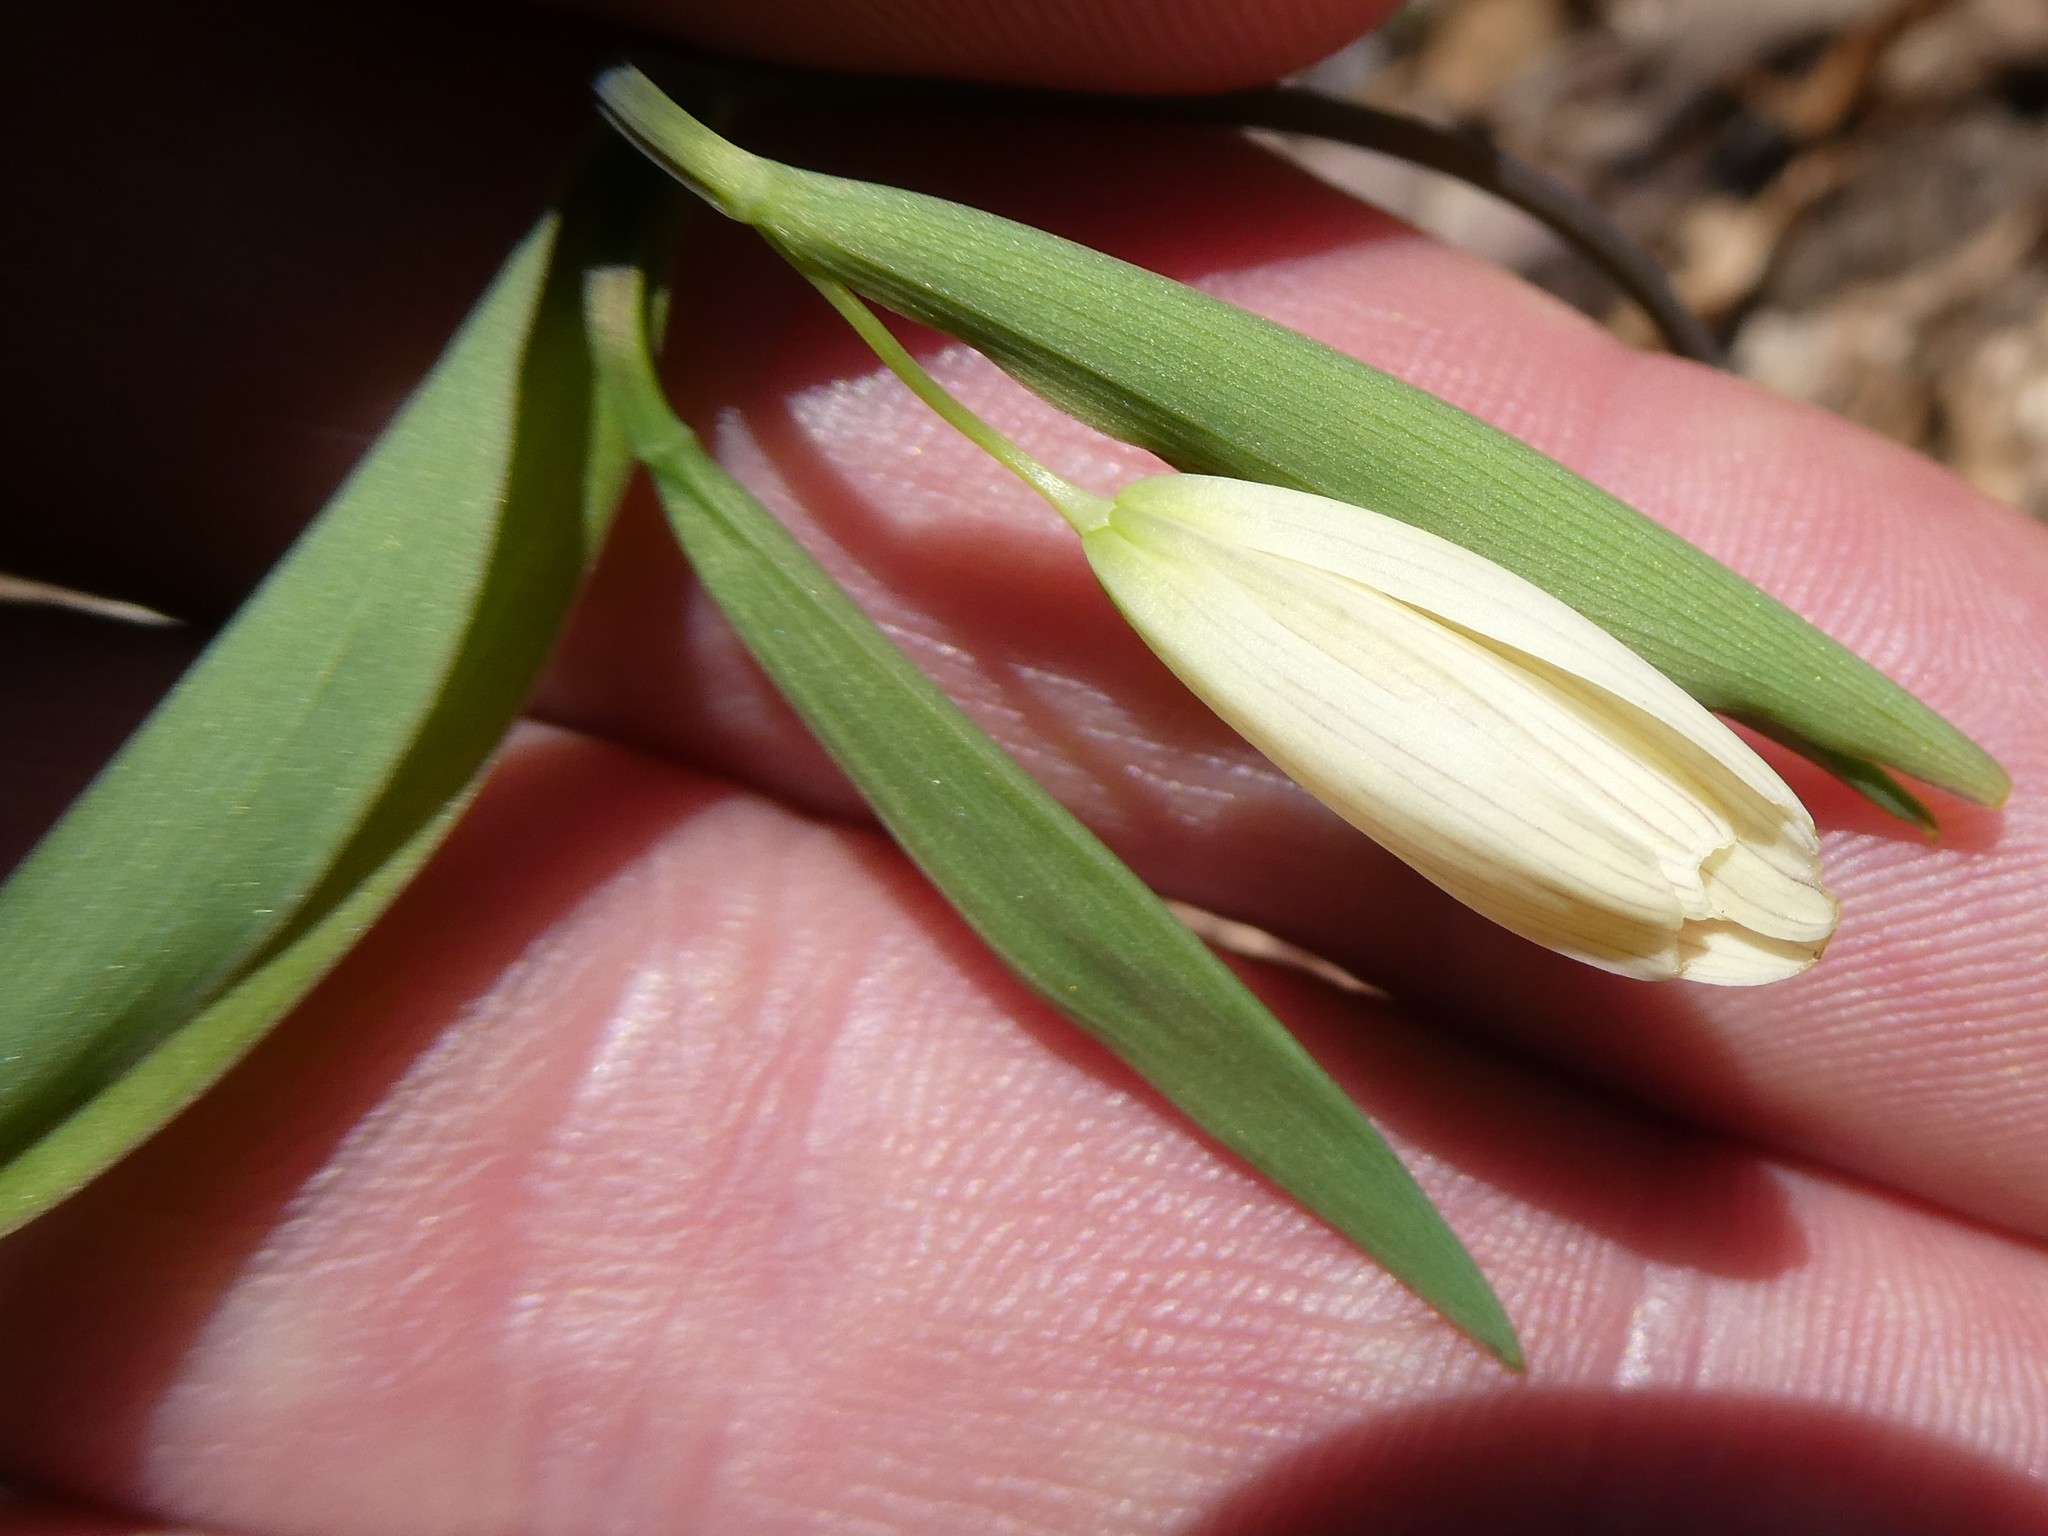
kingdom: Plantae
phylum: Tracheophyta
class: Liliopsida
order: Liliales
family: Colchicaceae
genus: Uvularia
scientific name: Uvularia sessilifolia
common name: Straw-lily
